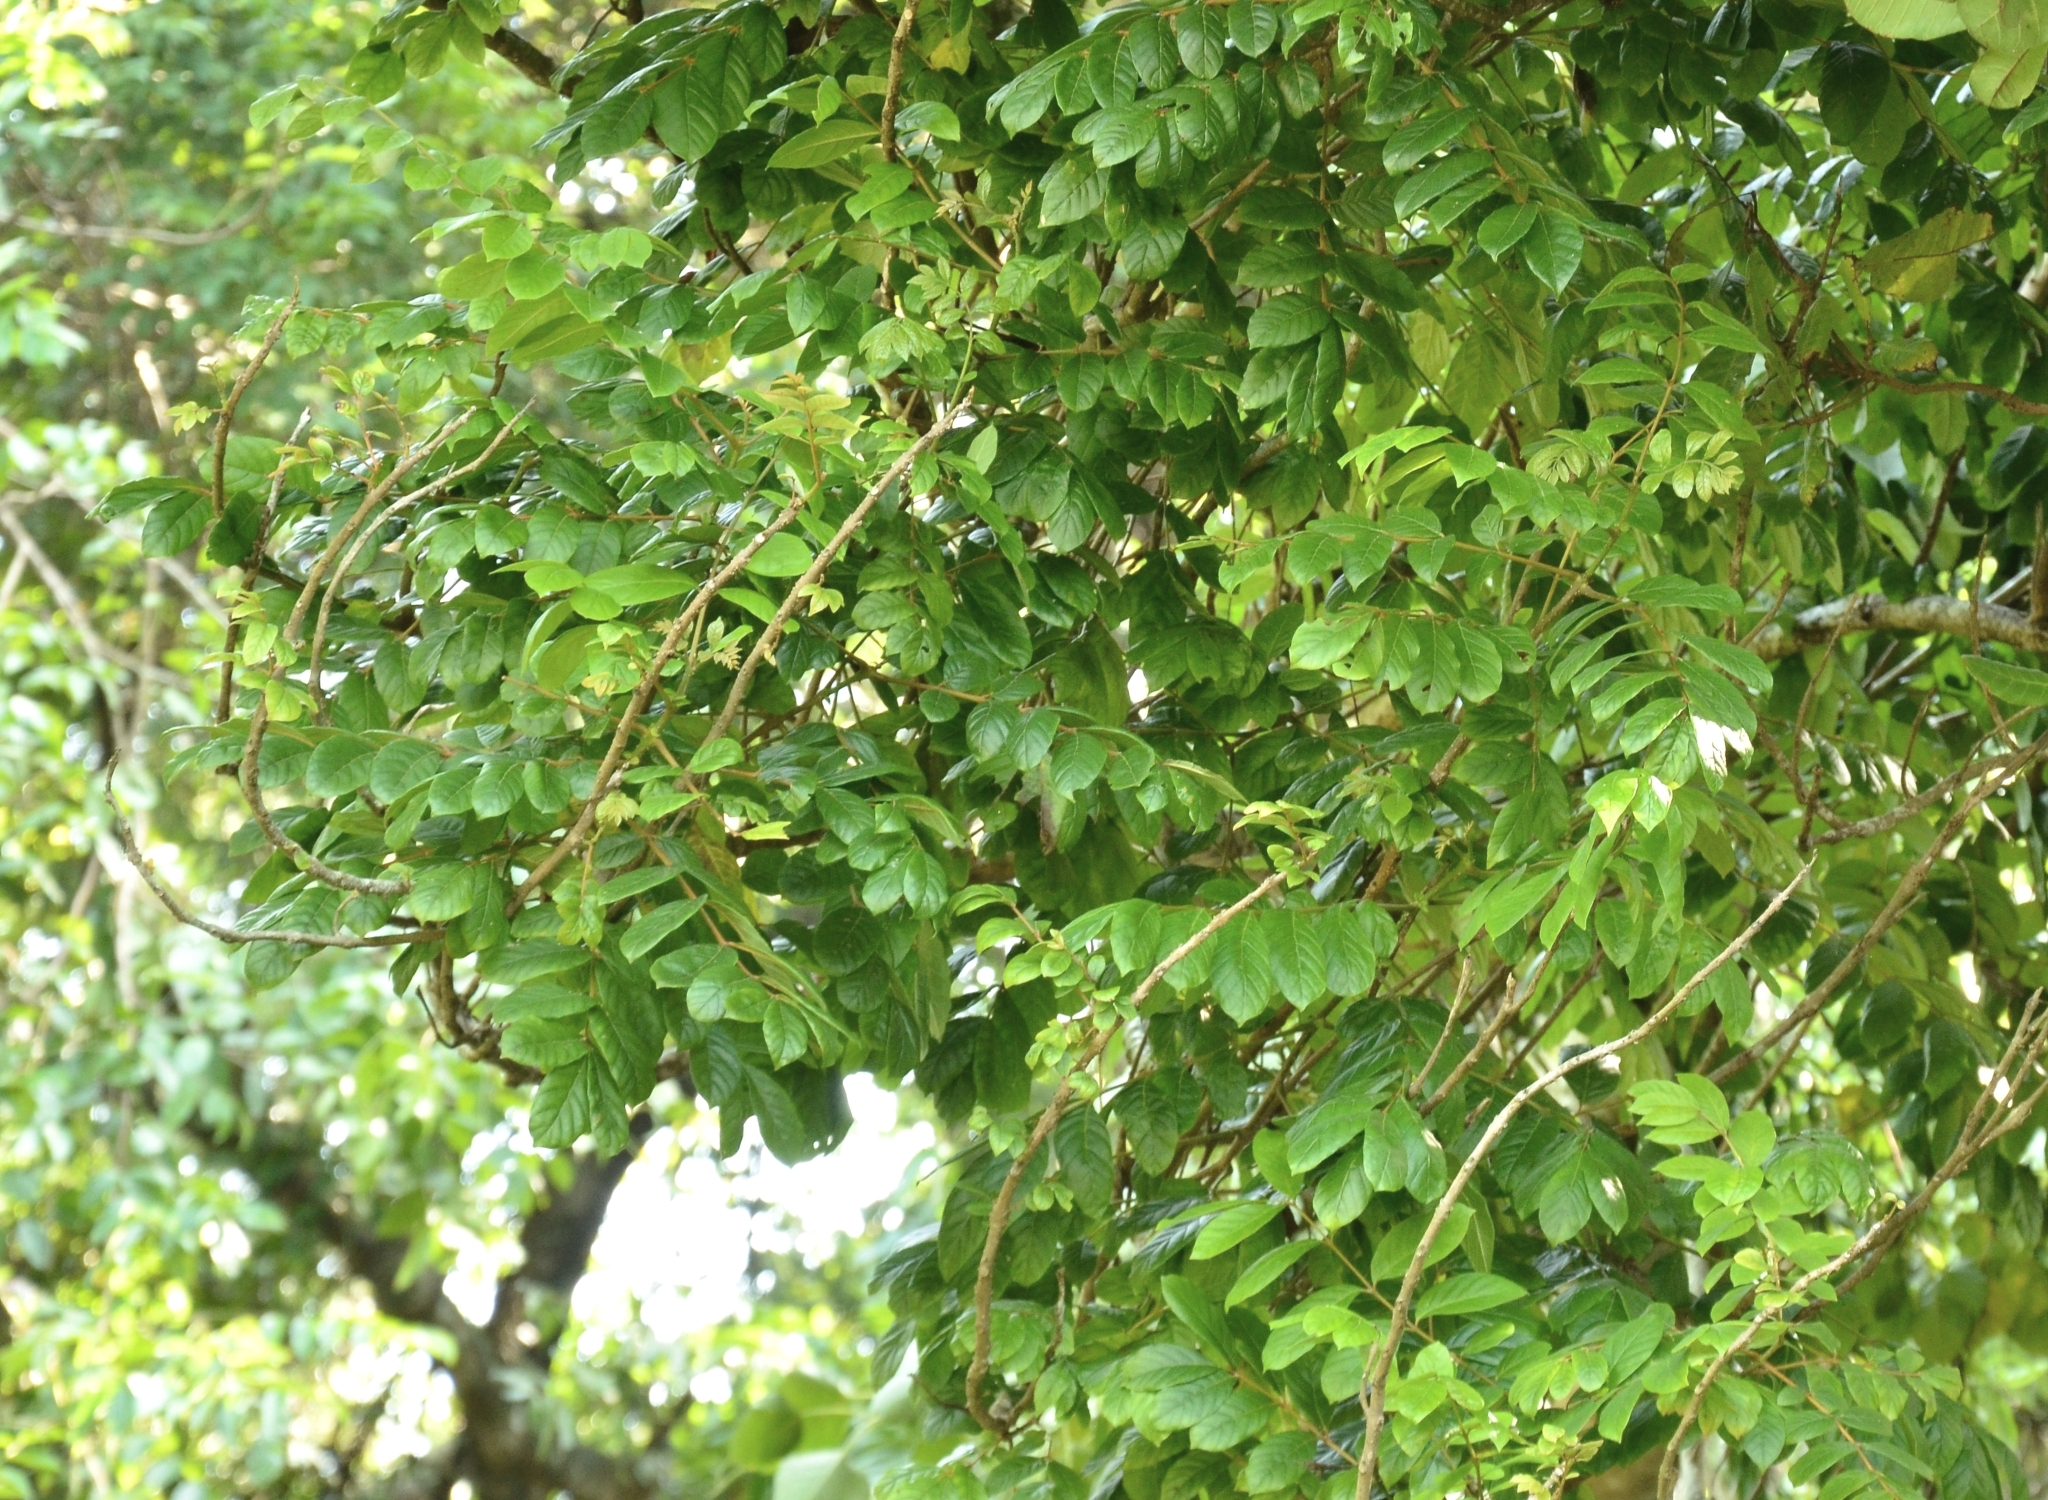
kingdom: Plantae
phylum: Tracheophyta
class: Magnoliopsida
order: Lamiales
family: Bignoniaceae
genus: Spathodea
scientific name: Spathodea campanulata
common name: African tuliptree
